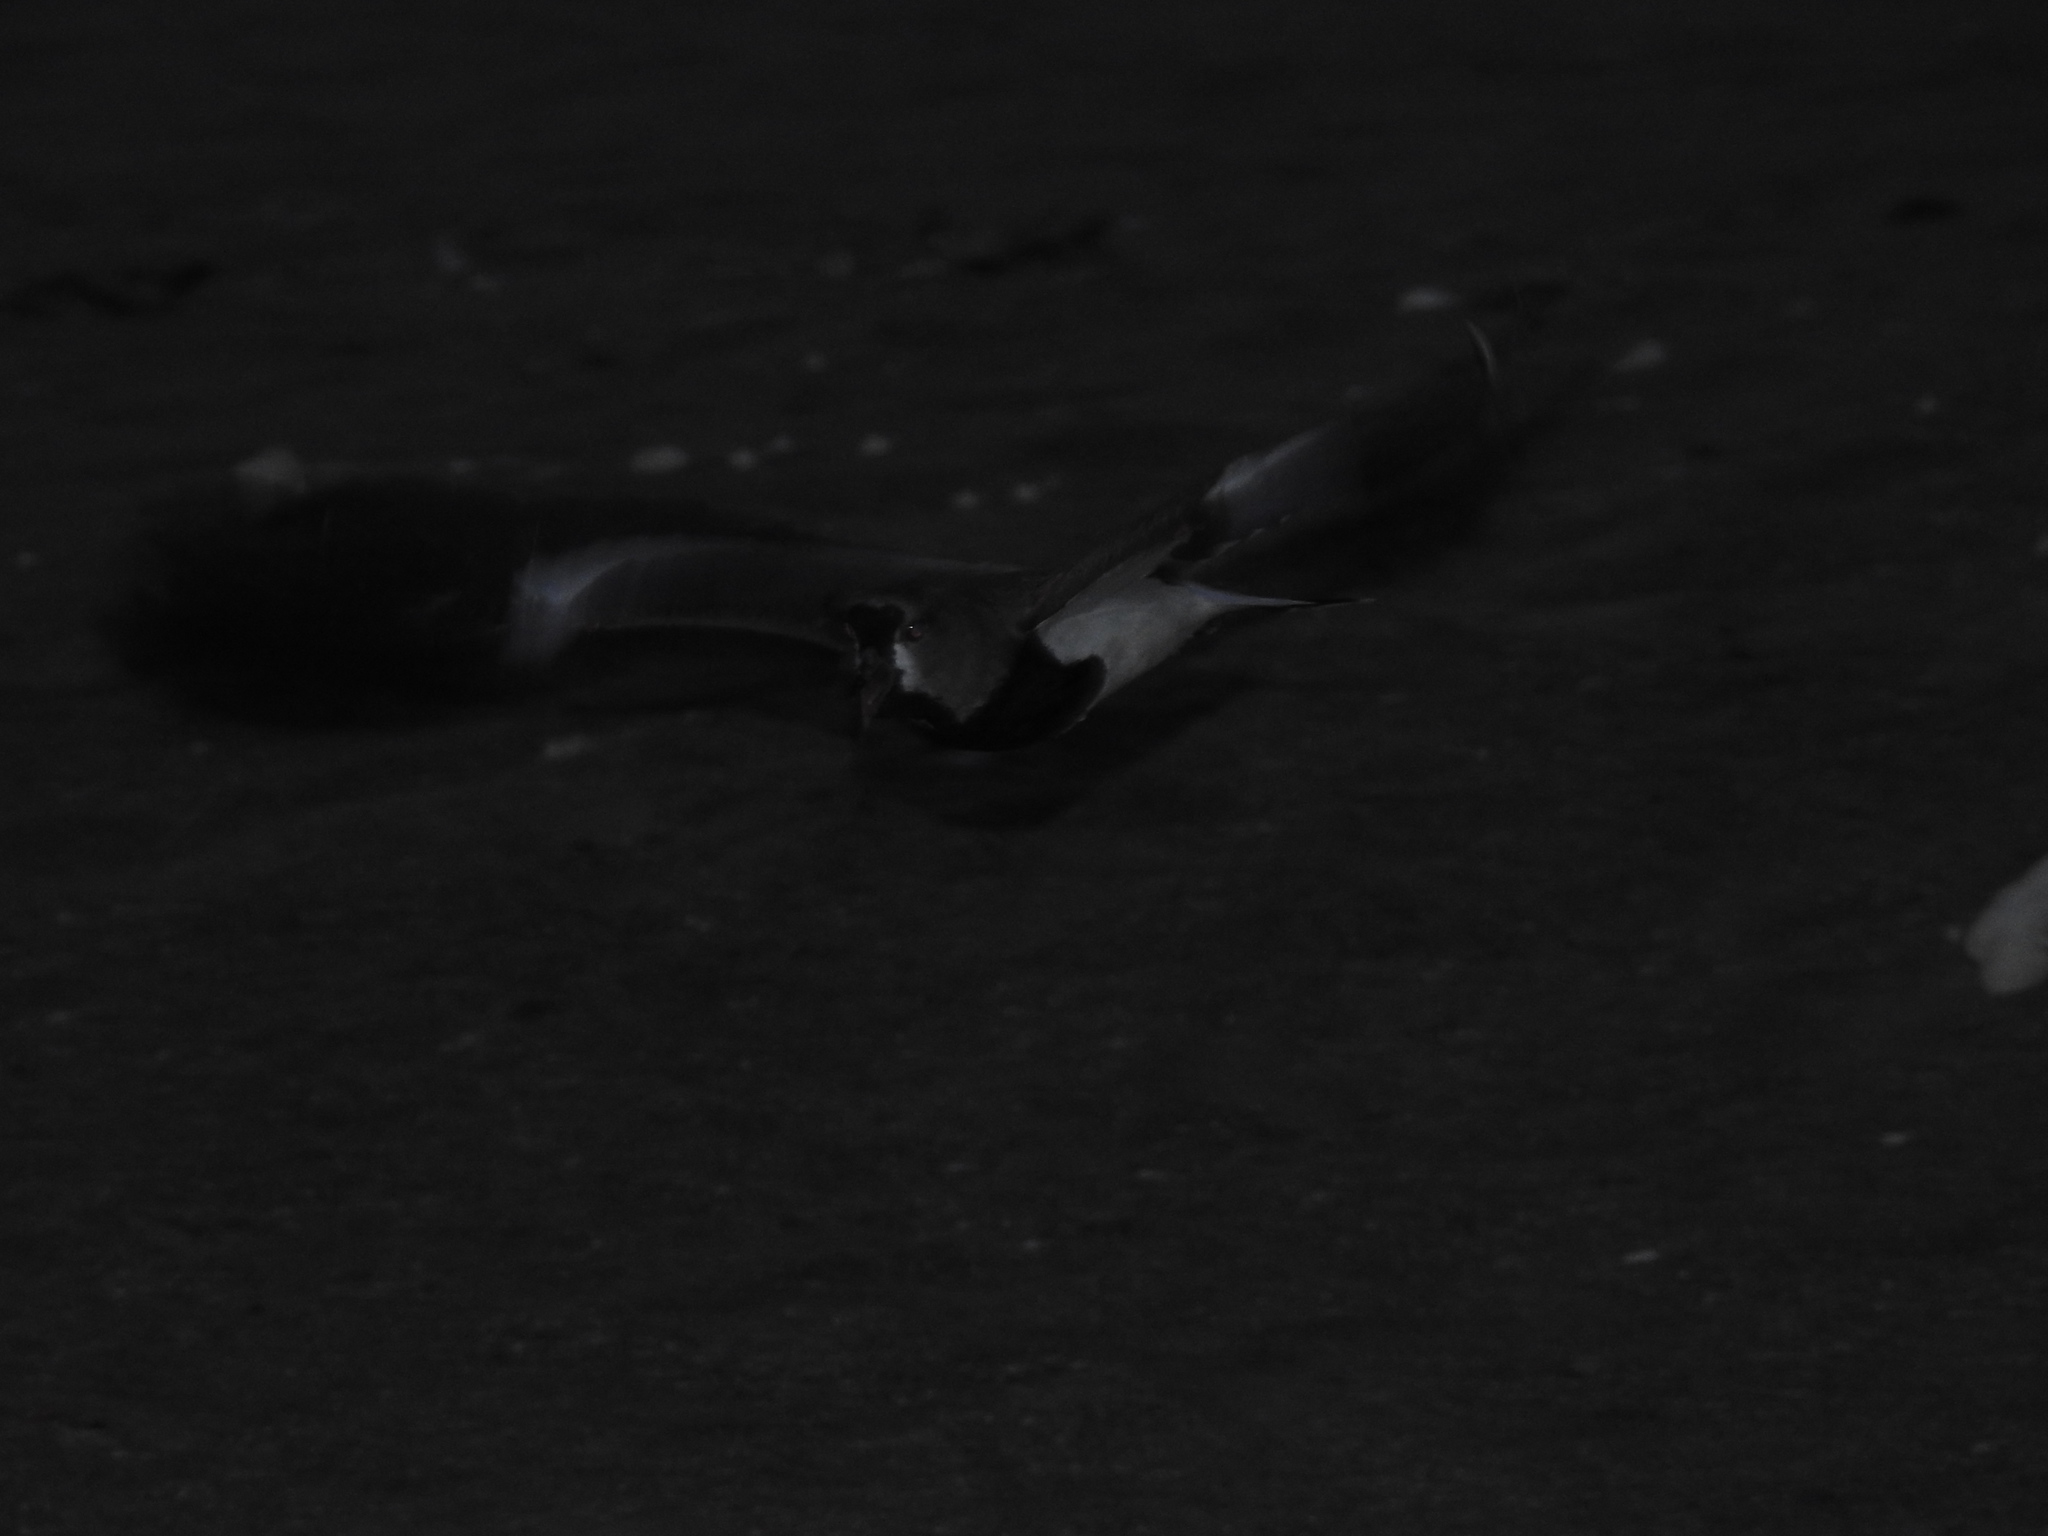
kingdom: Animalia
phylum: Chordata
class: Aves
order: Charadriiformes
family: Charadriidae
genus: Vanellus
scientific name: Vanellus chilensis
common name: Southern lapwing
